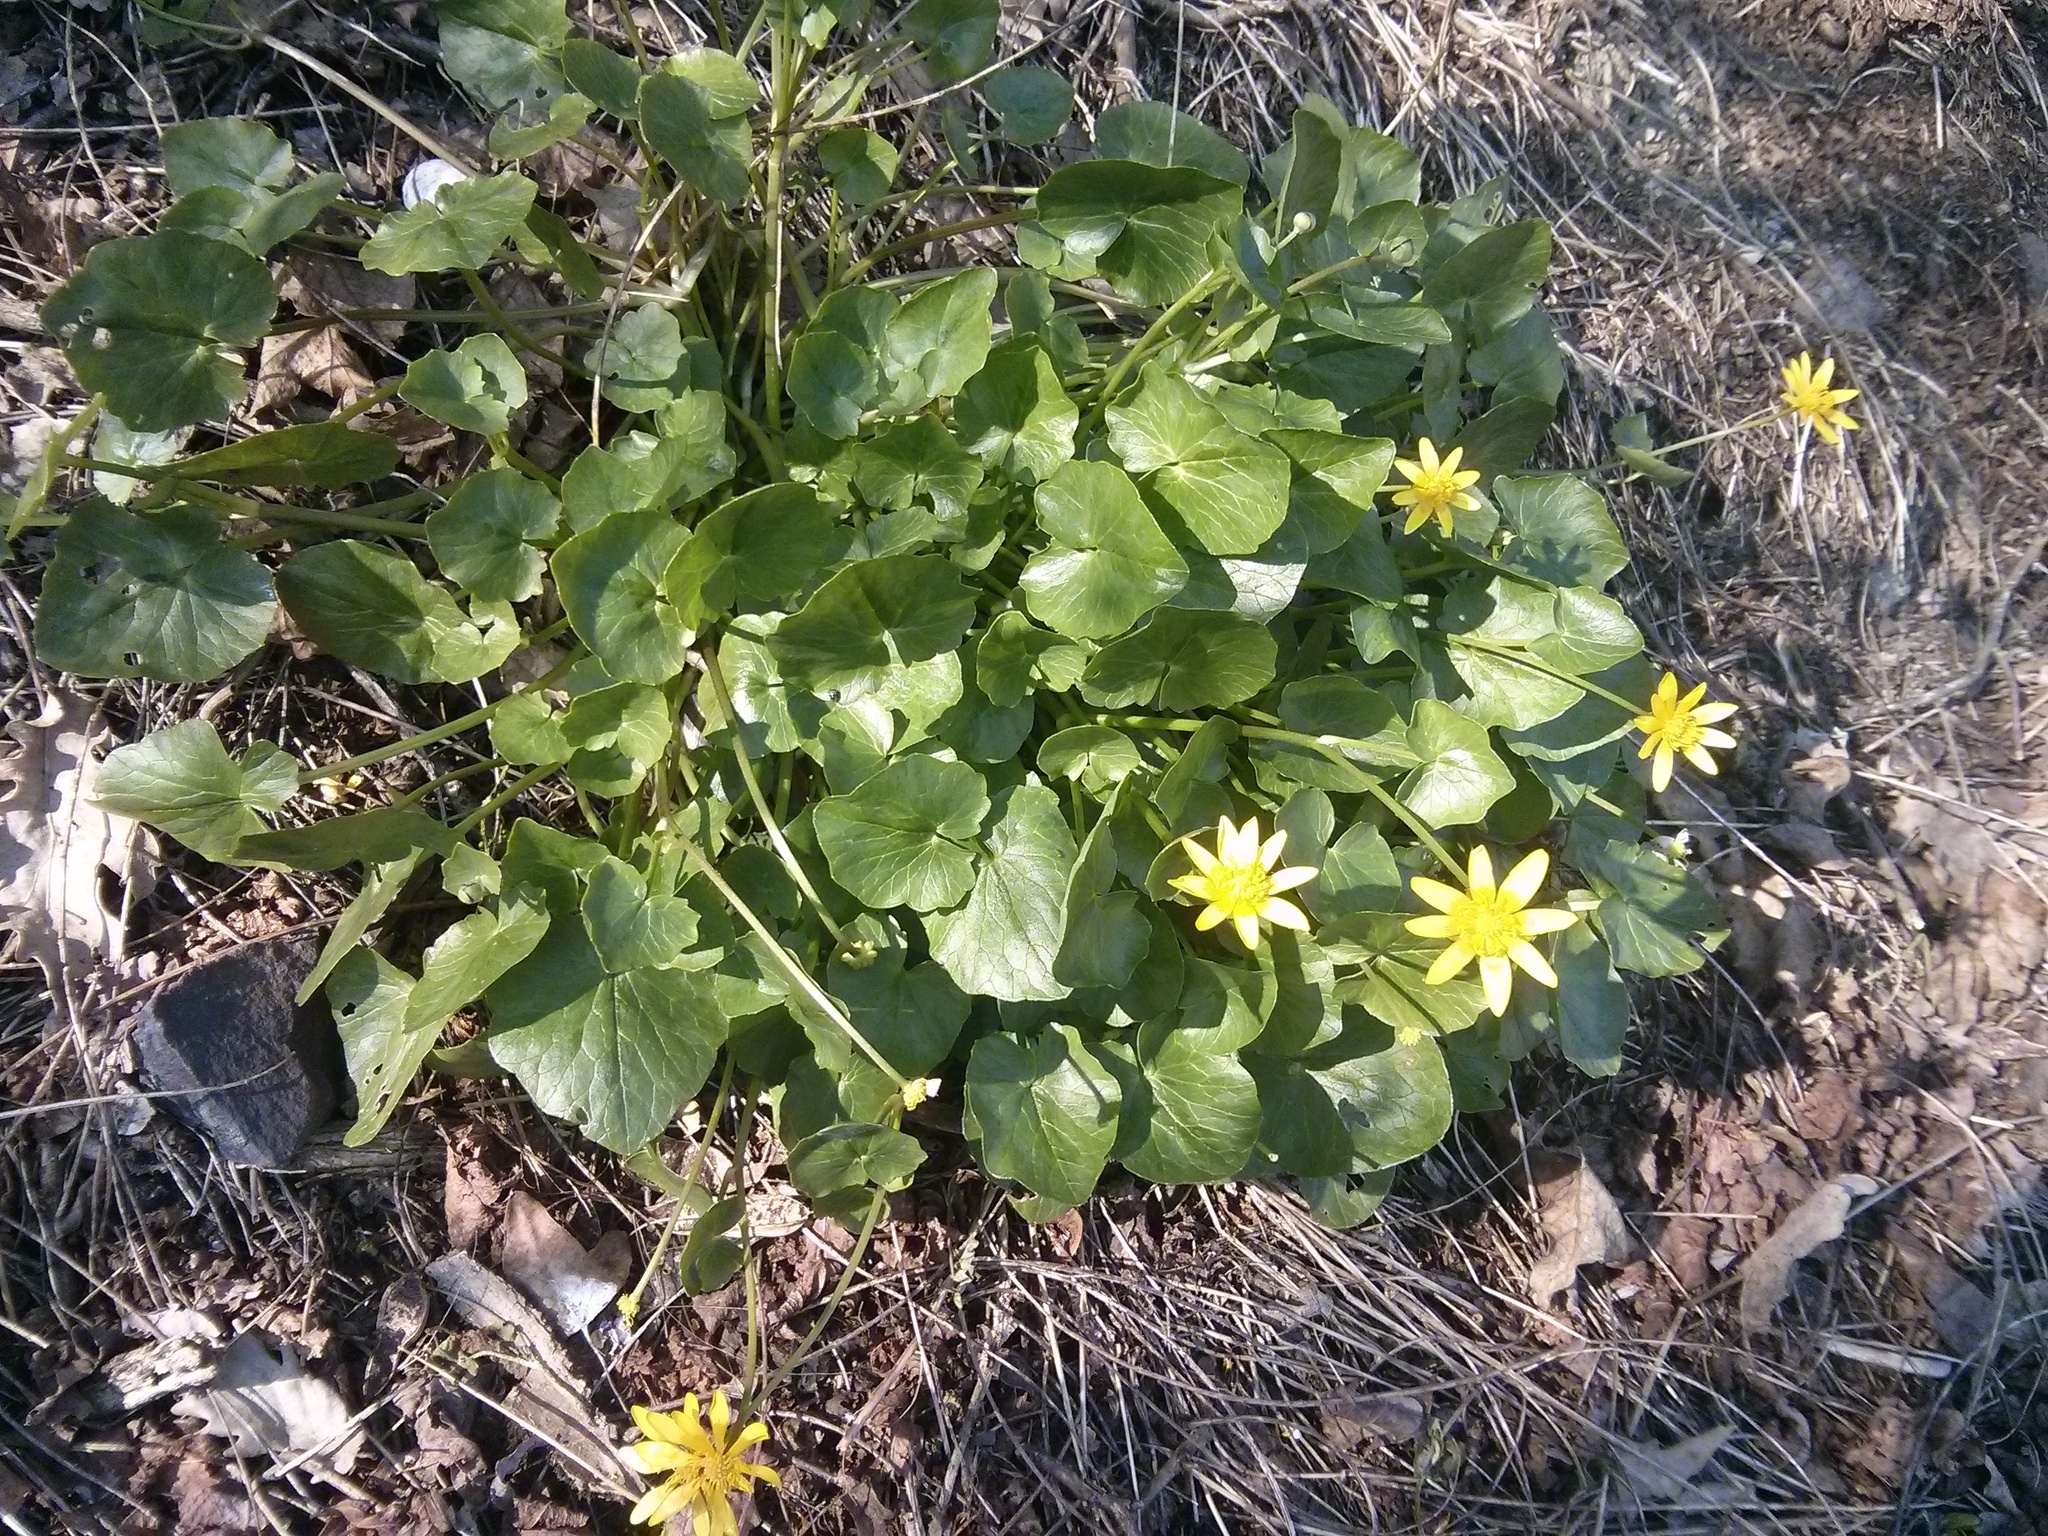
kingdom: Plantae
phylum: Tracheophyta
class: Magnoliopsida
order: Ranunculales
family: Ranunculaceae
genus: Ficaria
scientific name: Ficaria verna
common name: Lesser celandine
